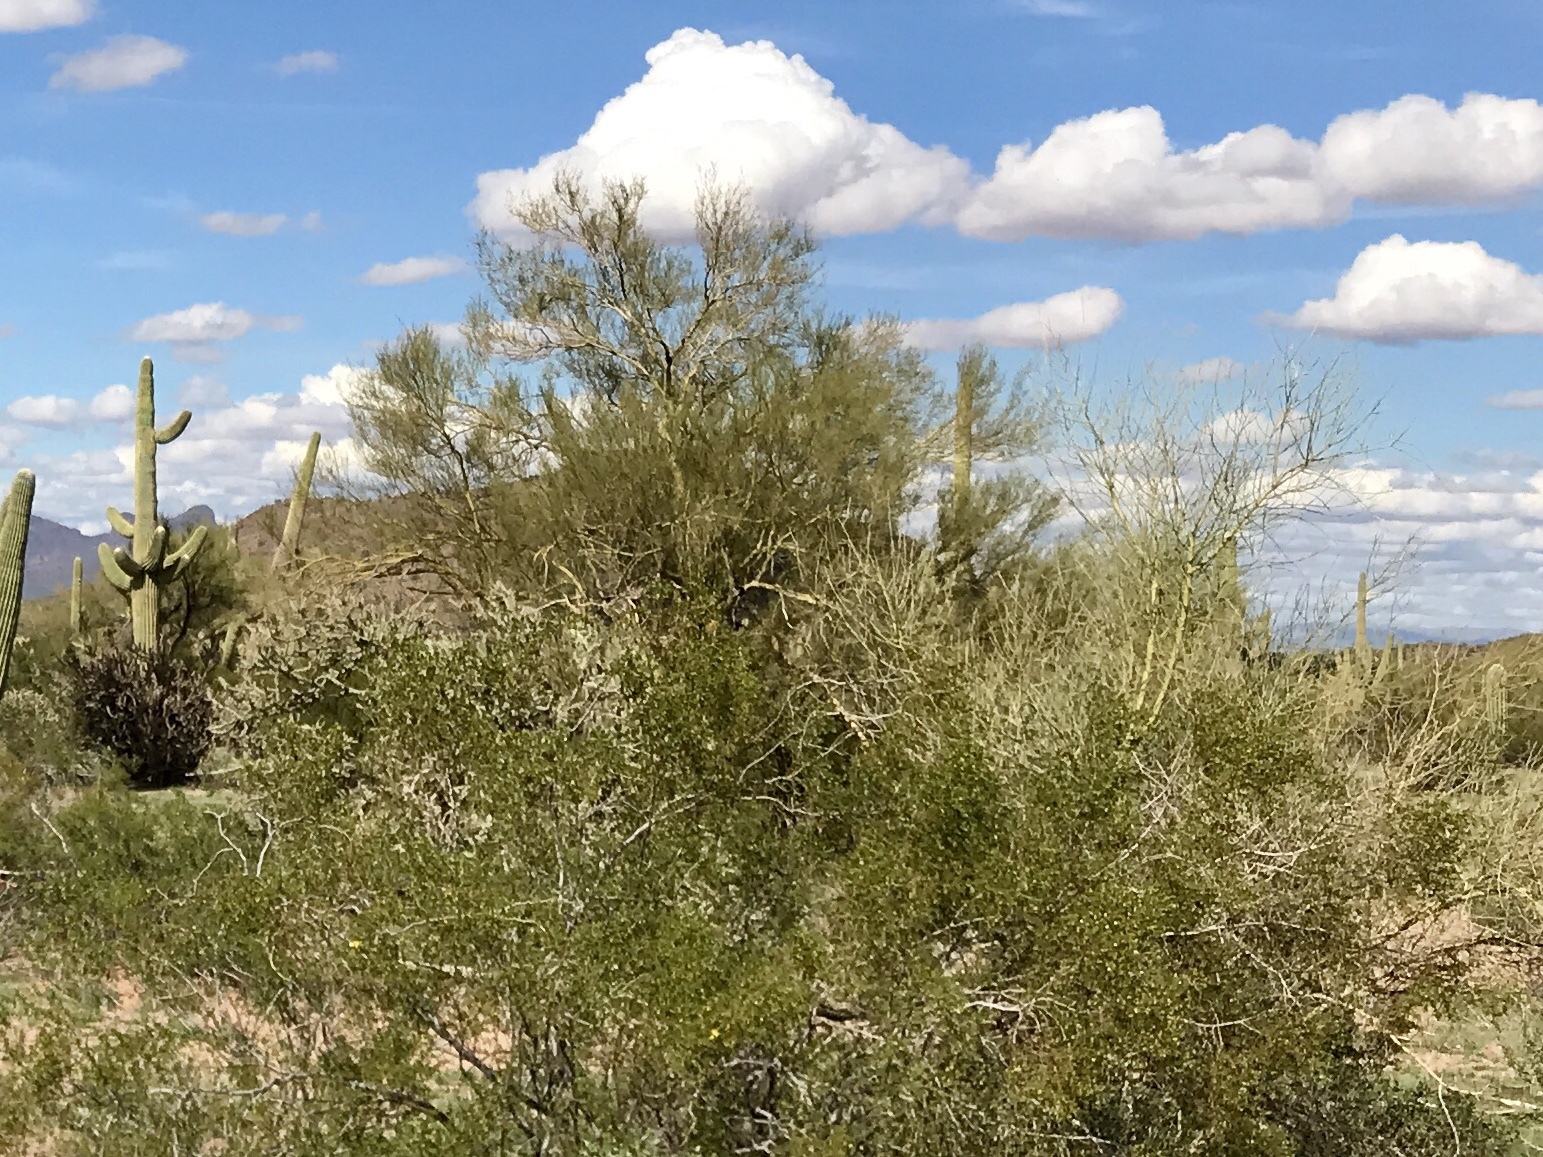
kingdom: Plantae
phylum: Tracheophyta
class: Magnoliopsida
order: Zygophyllales
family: Zygophyllaceae
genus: Larrea
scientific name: Larrea tridentata
